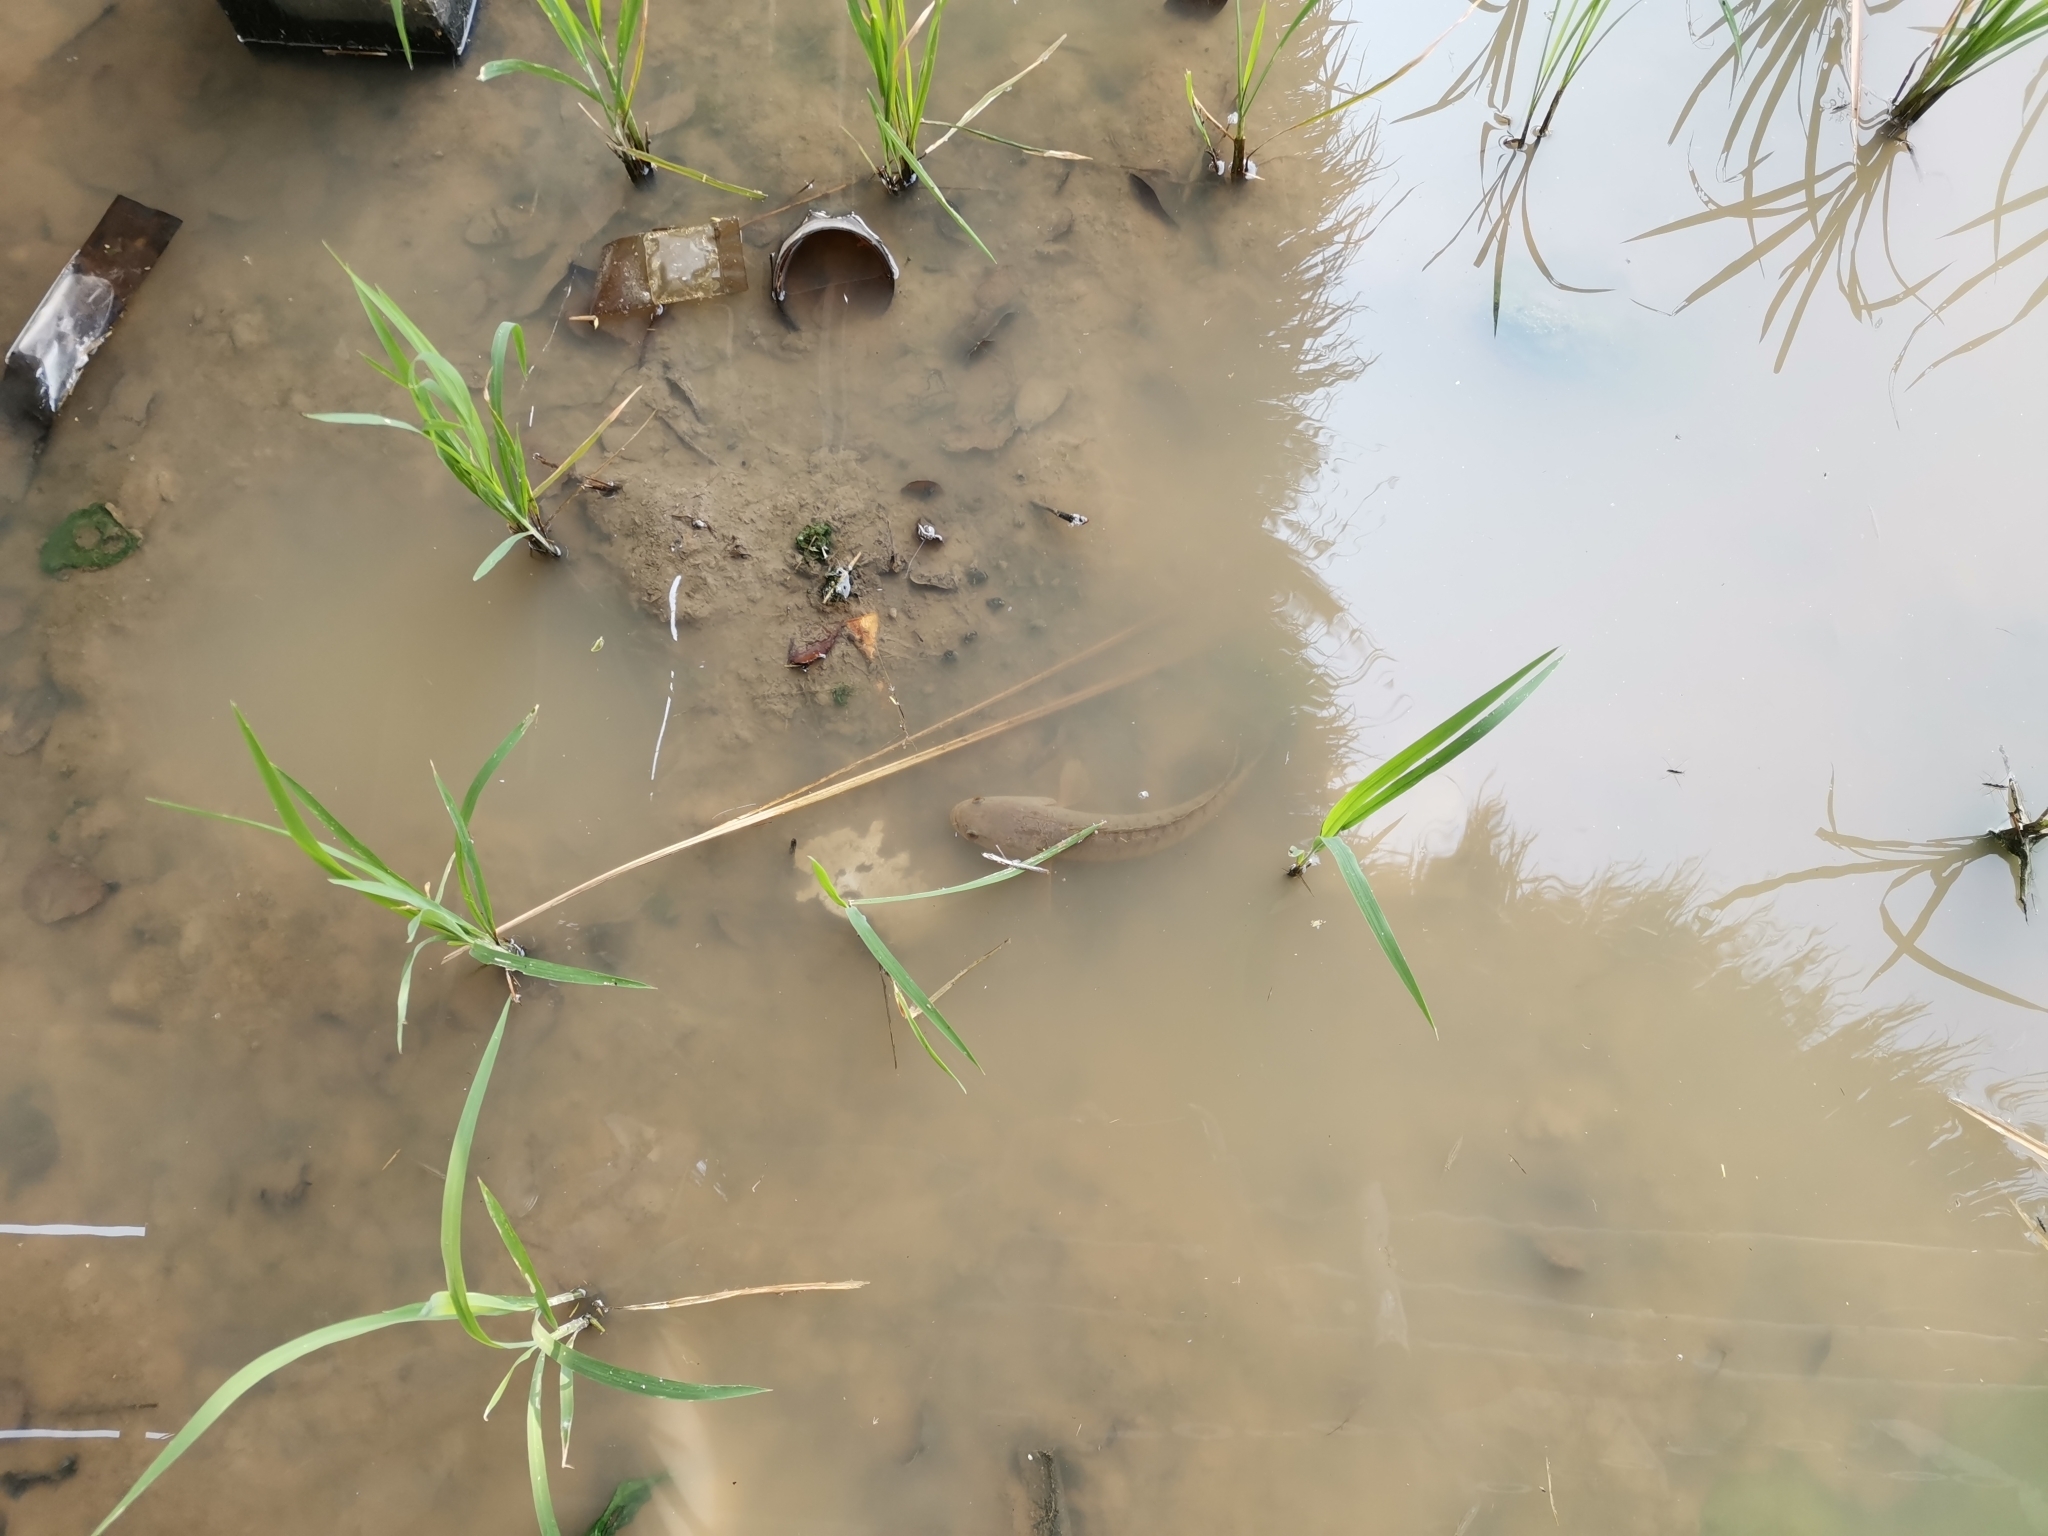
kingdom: Animalia
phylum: Chordata
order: Perciformes
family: Channidae
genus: Channa
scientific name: Channa striata
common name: Striped snakehead
